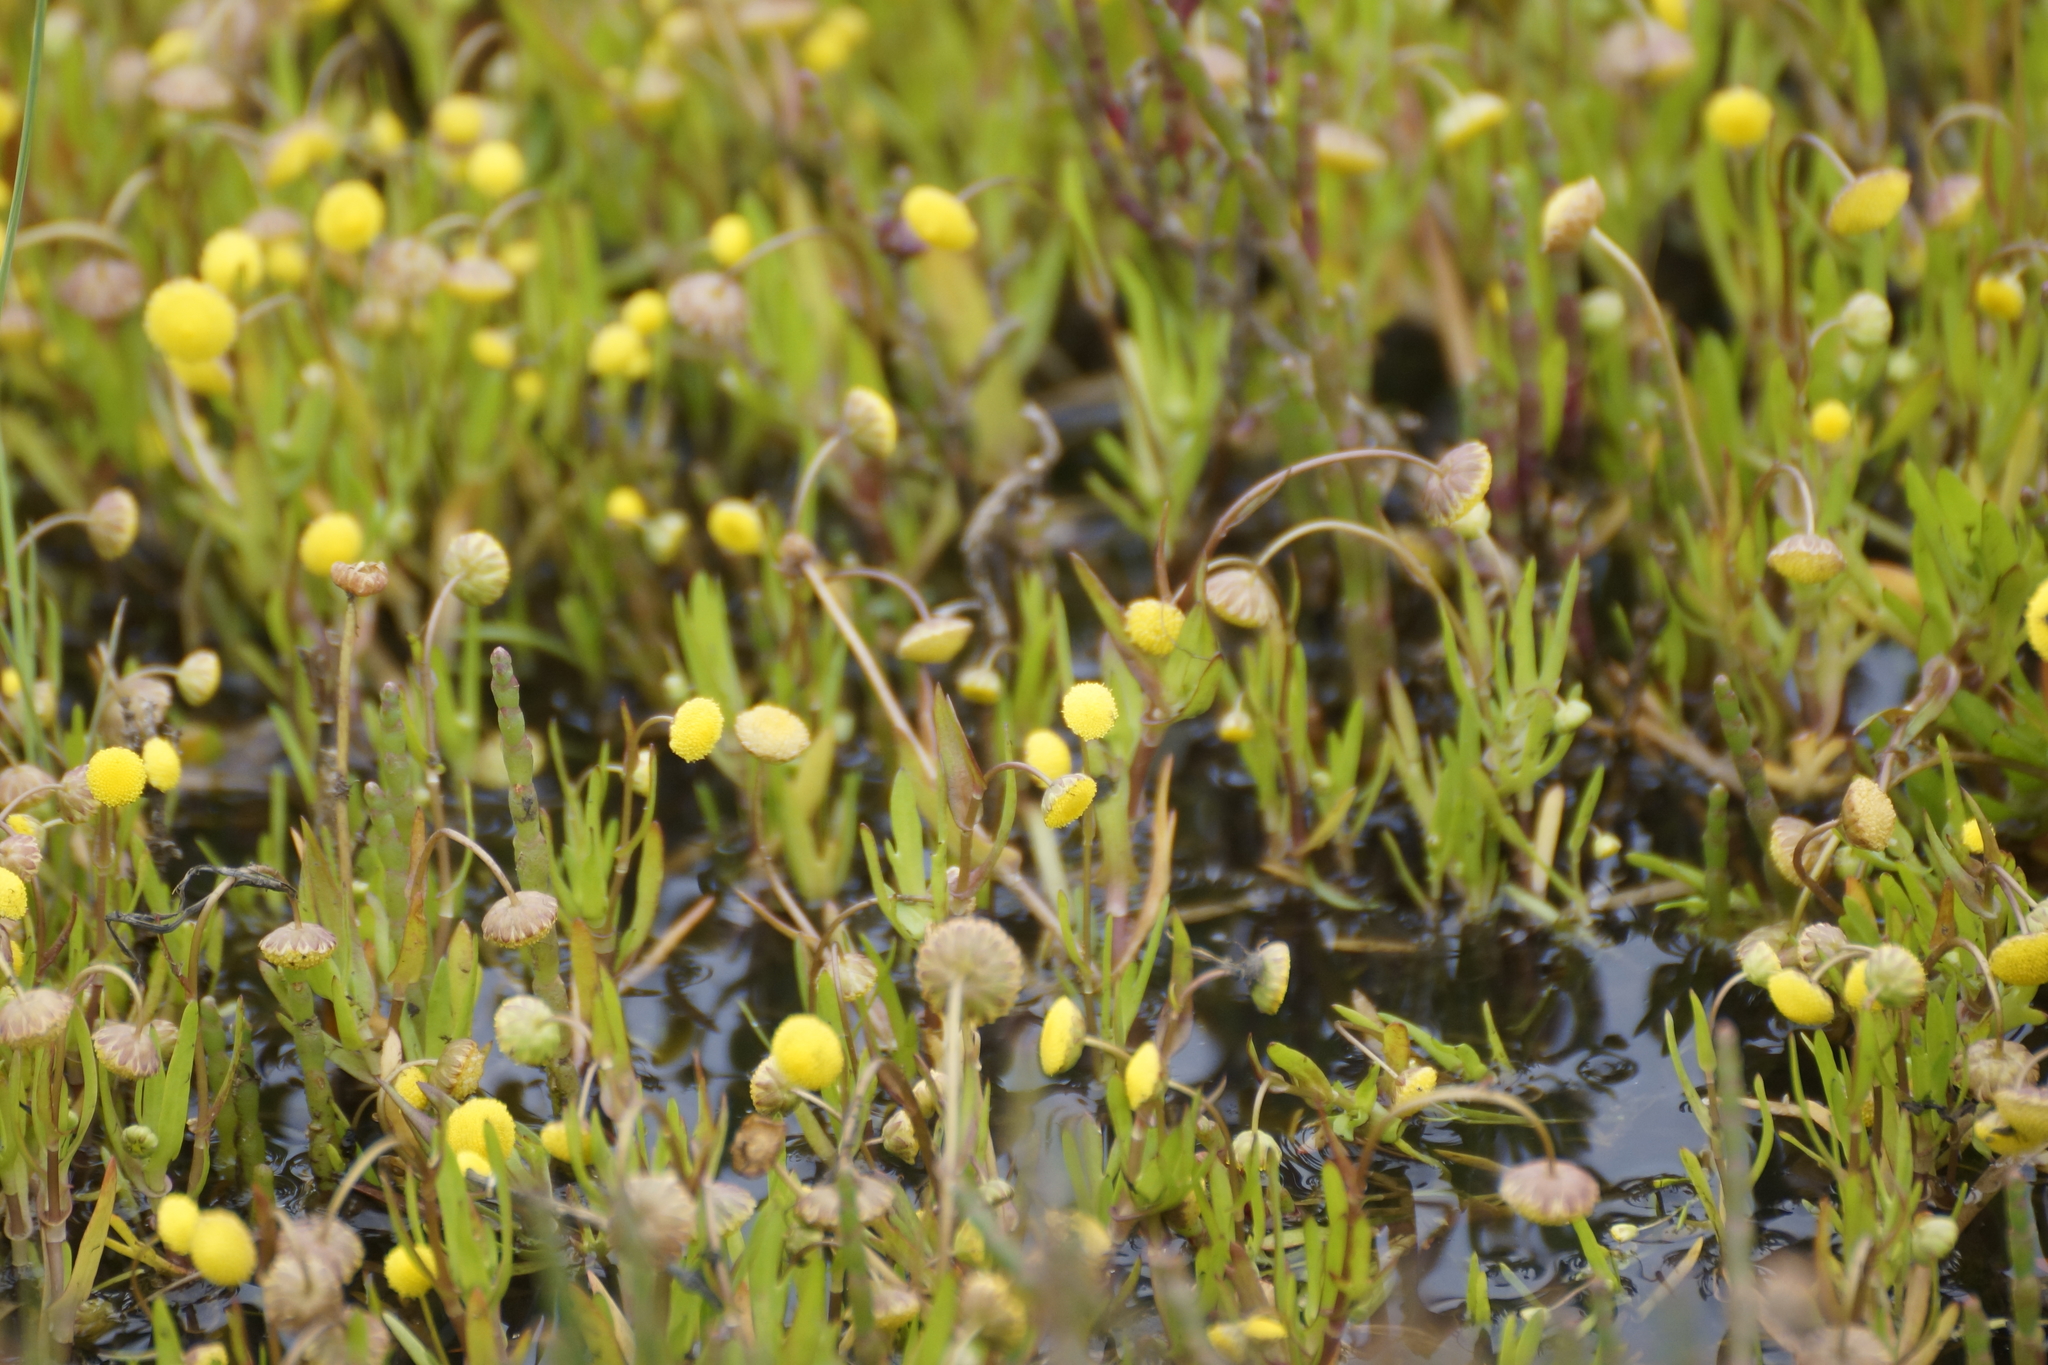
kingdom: Plantae
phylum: Tracheophyta
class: Magnoliopsida
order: Asterales
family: Asteraceae
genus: Cotula
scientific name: Cotula coronopifolia
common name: Buttonweed
